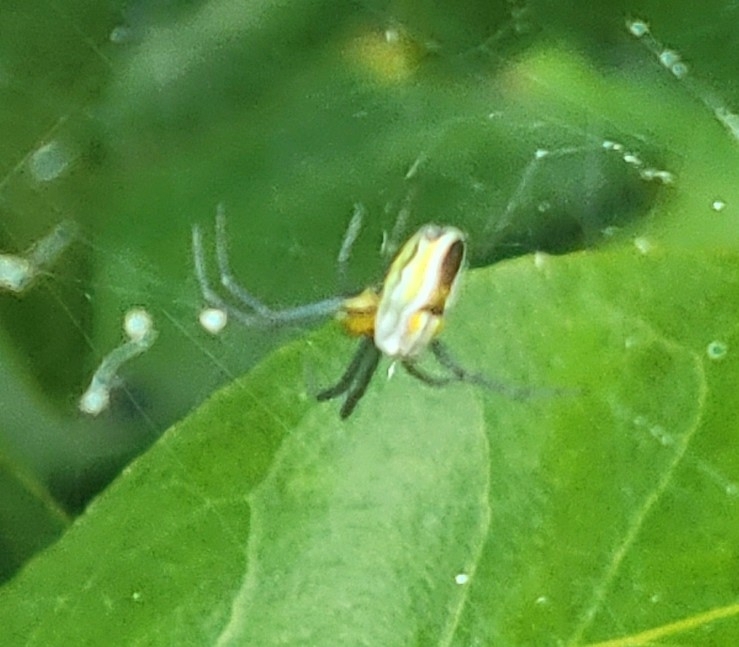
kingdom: Animalia
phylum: Arthropoda
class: Arachnida
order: Araneae
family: Araneidae
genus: Mecynogea
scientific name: Mecynogea lemniscata
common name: Orb weavers
